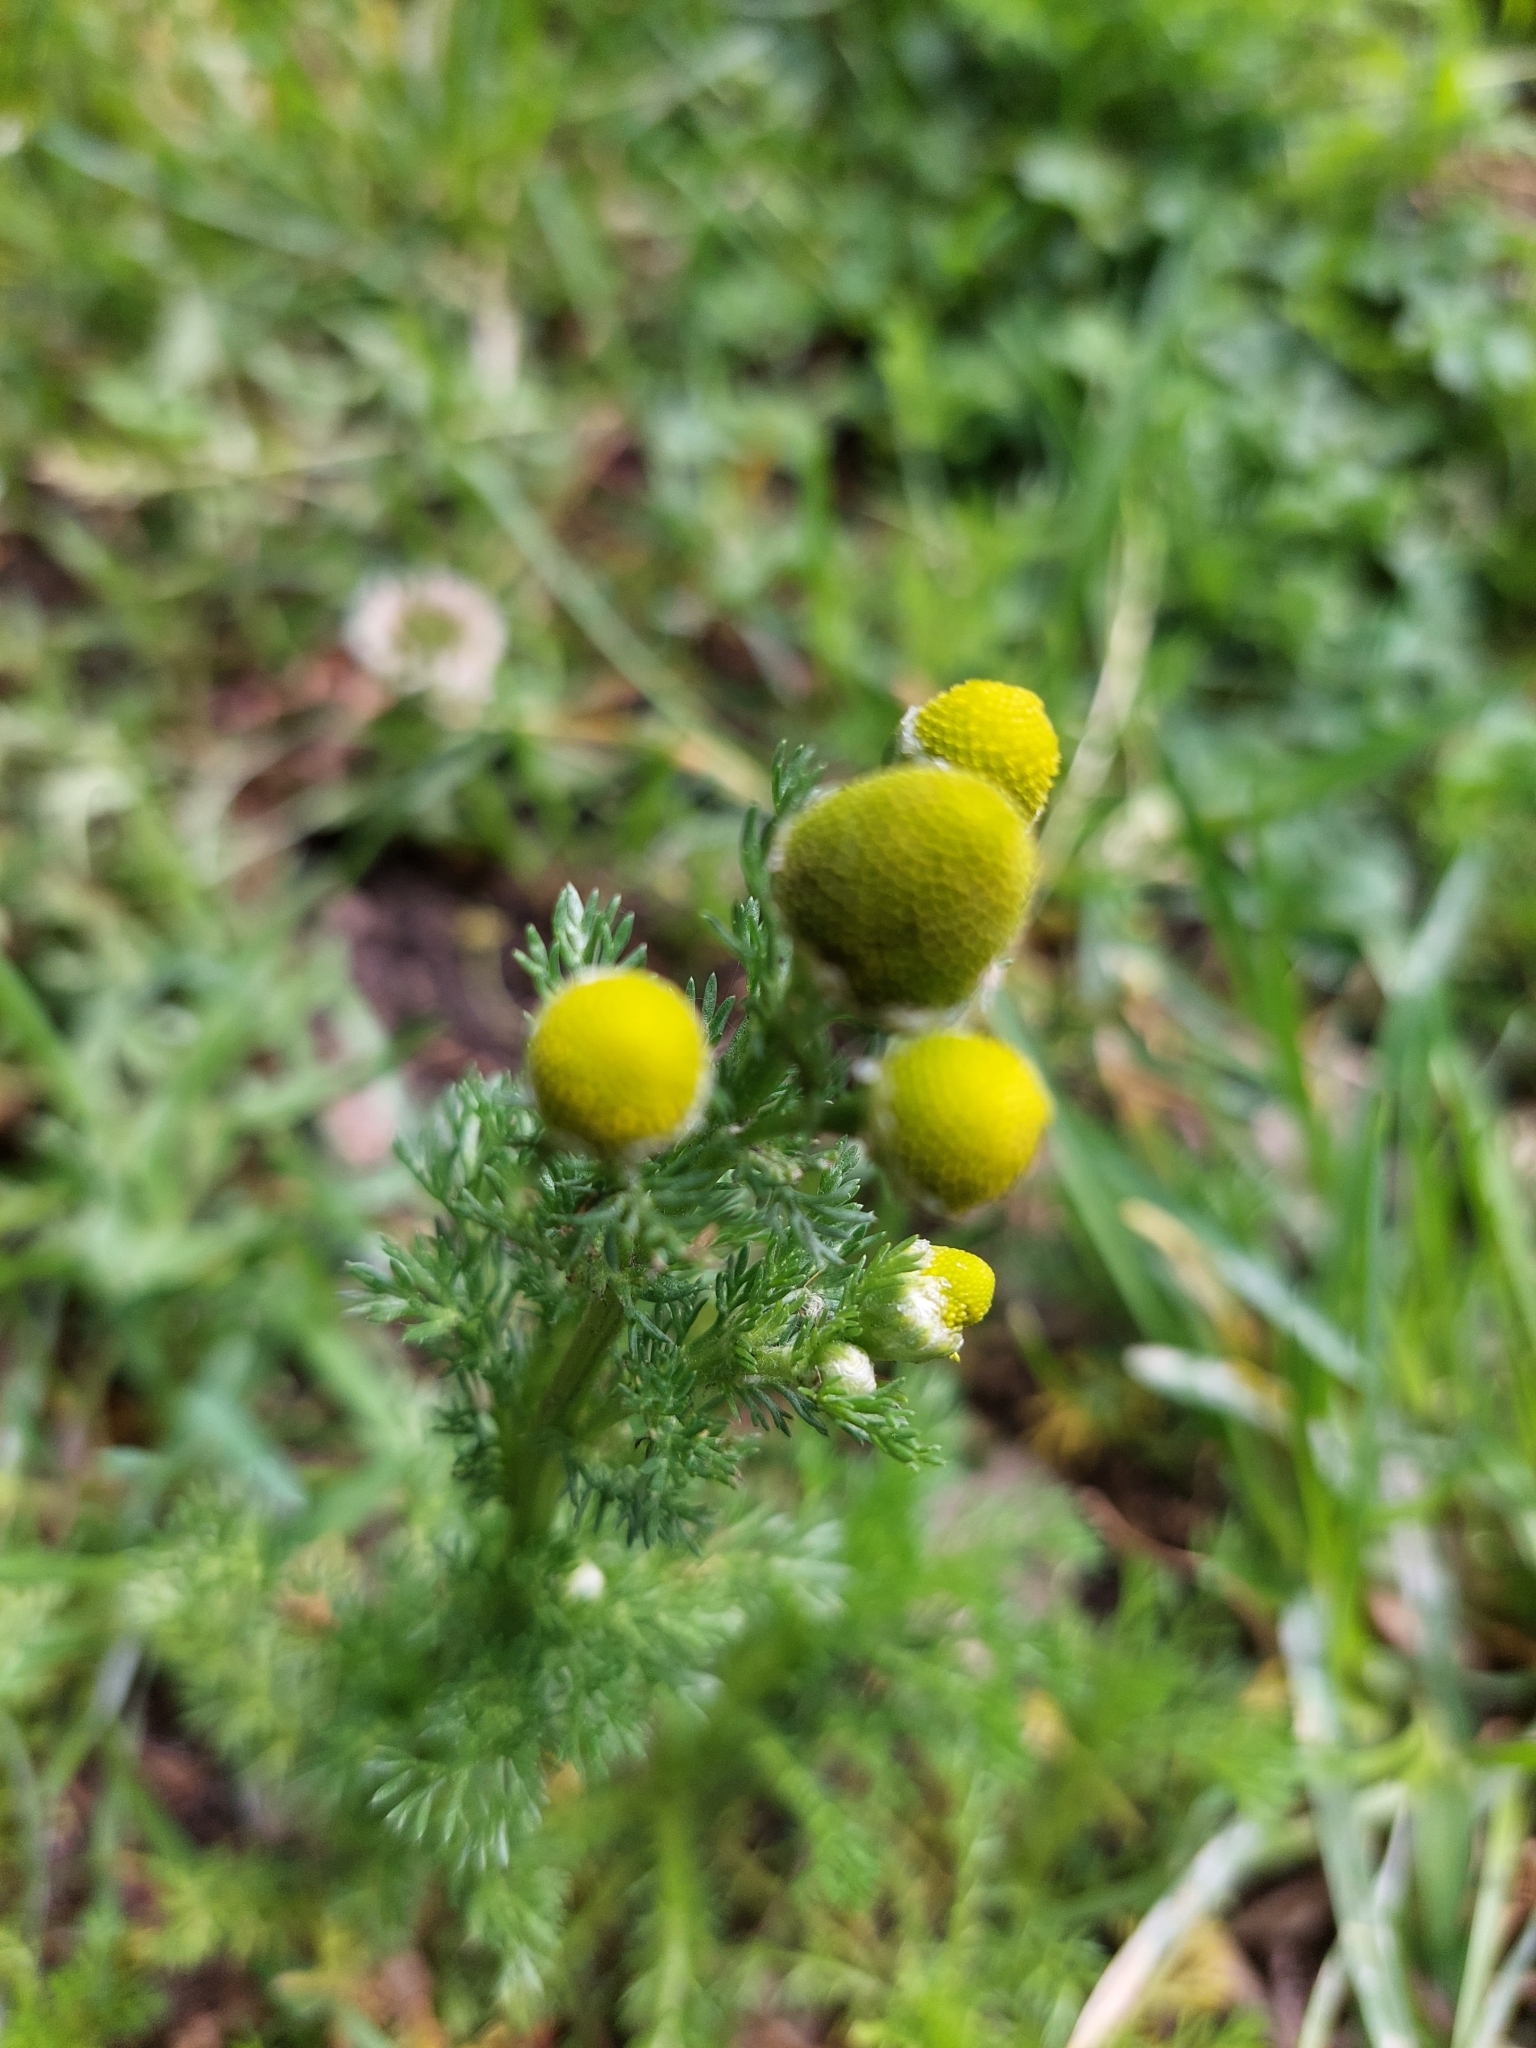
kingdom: Plantae
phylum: Tracheophyta
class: Magnoliopsida
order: Asterales
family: Asteraceae
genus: Matricaria
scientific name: Matricaria discoidea
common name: Disc mayweed
